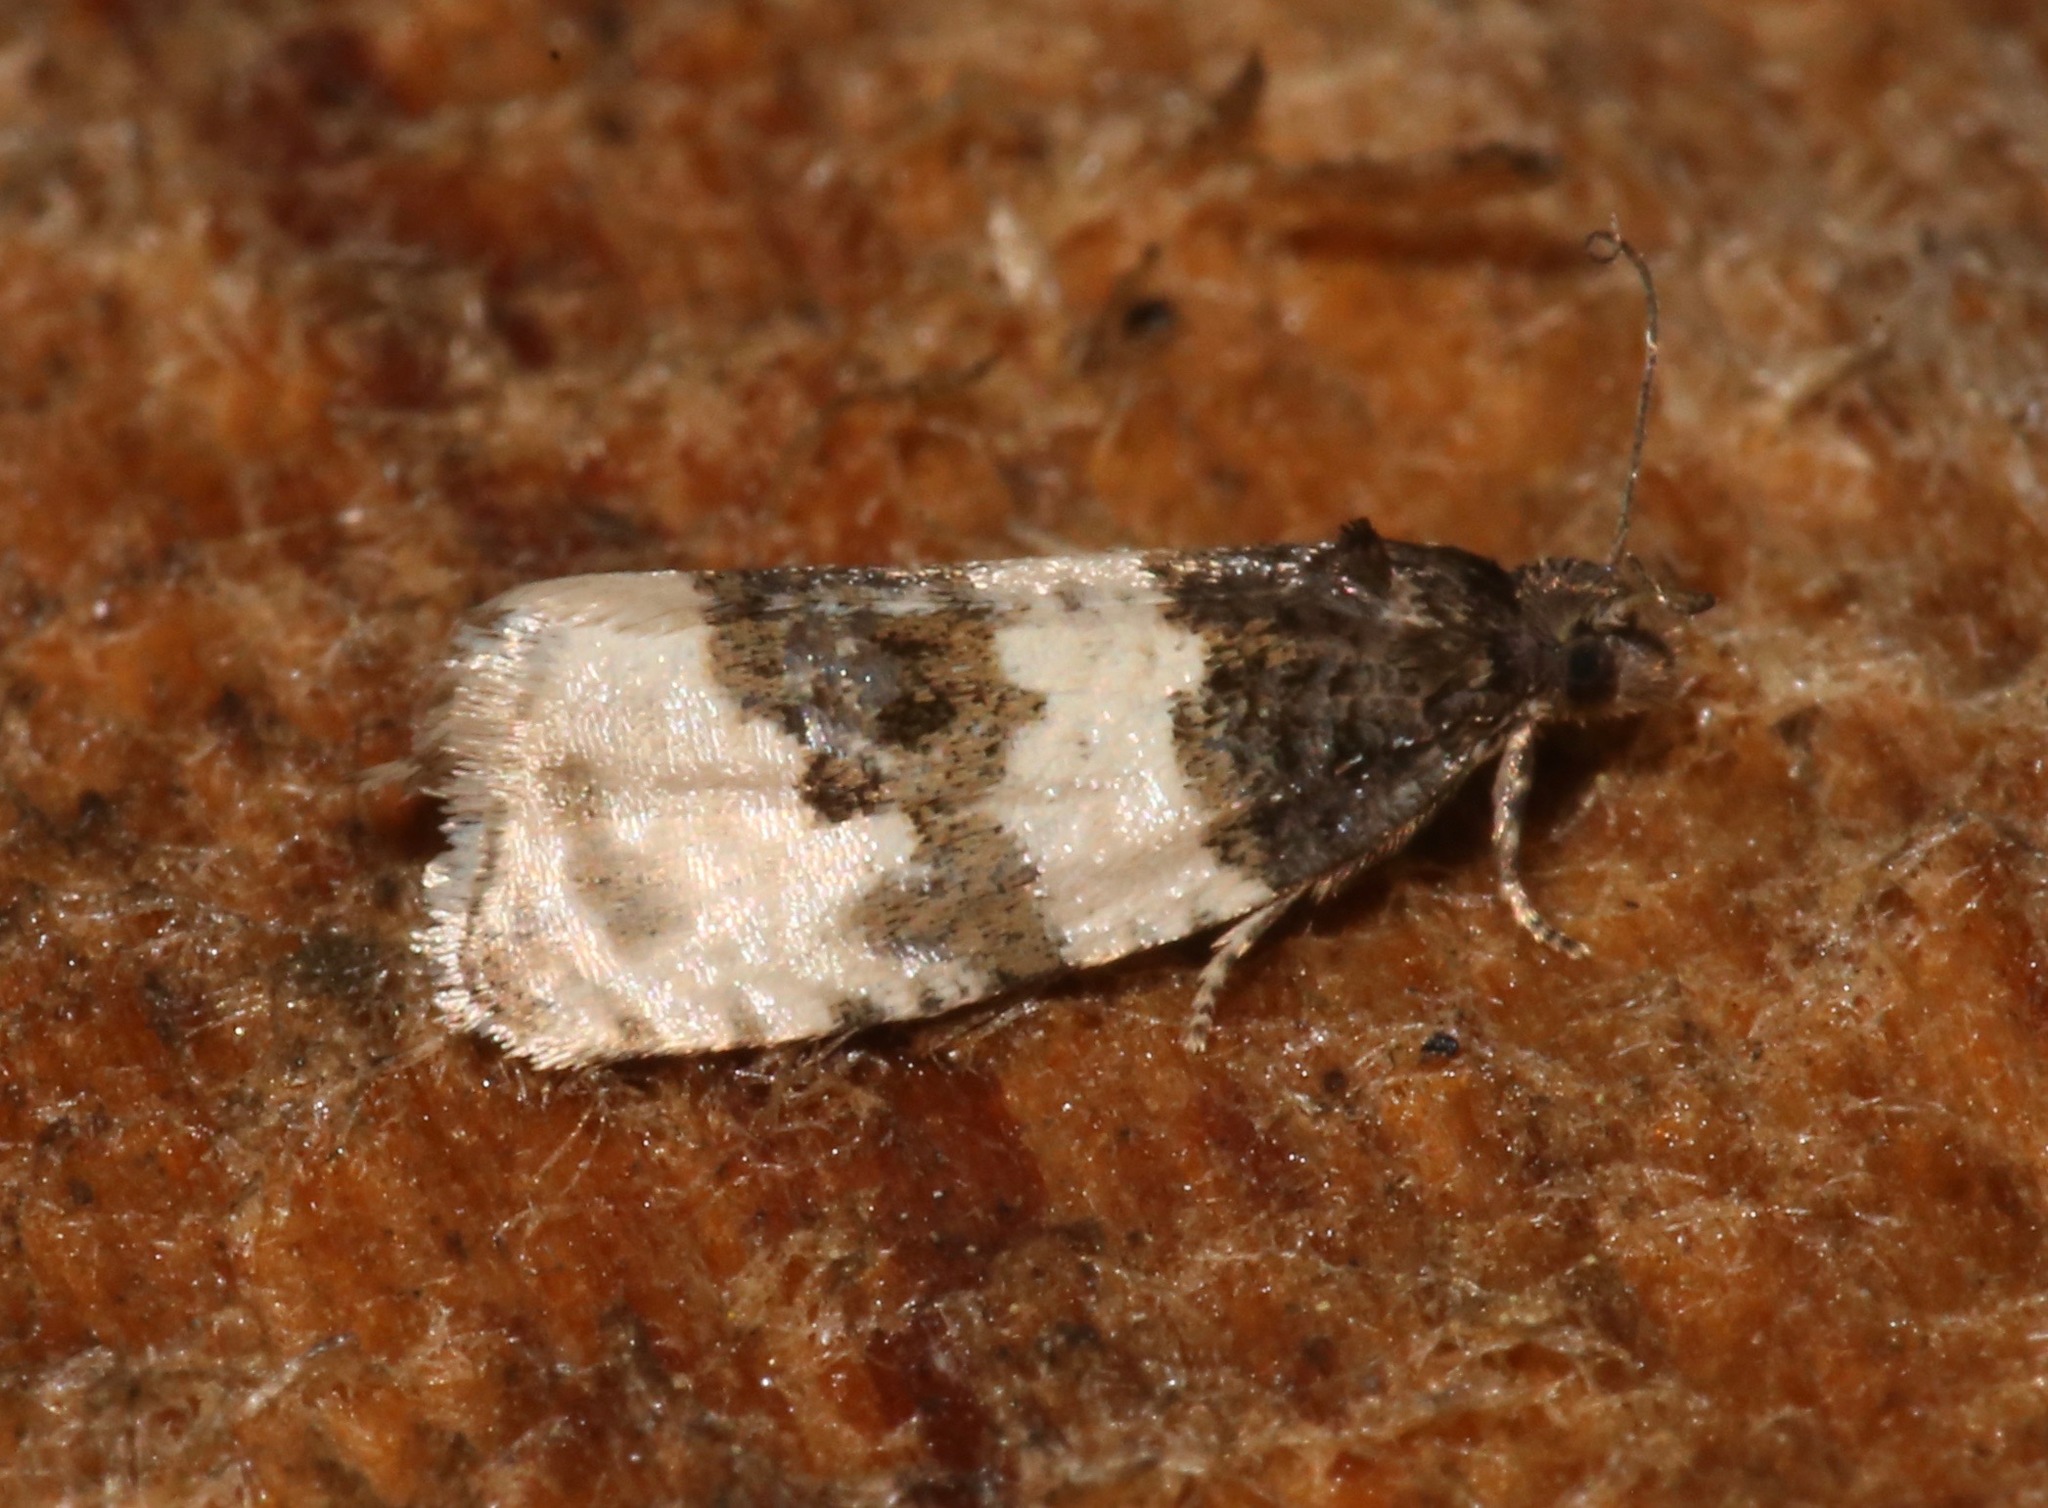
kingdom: Animalia
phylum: Arthropoda
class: Insecta
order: Lepidoptera
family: Tortricidae
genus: Olethreutes
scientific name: Olethreutes bipartitana
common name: Divided olethreutes moth
